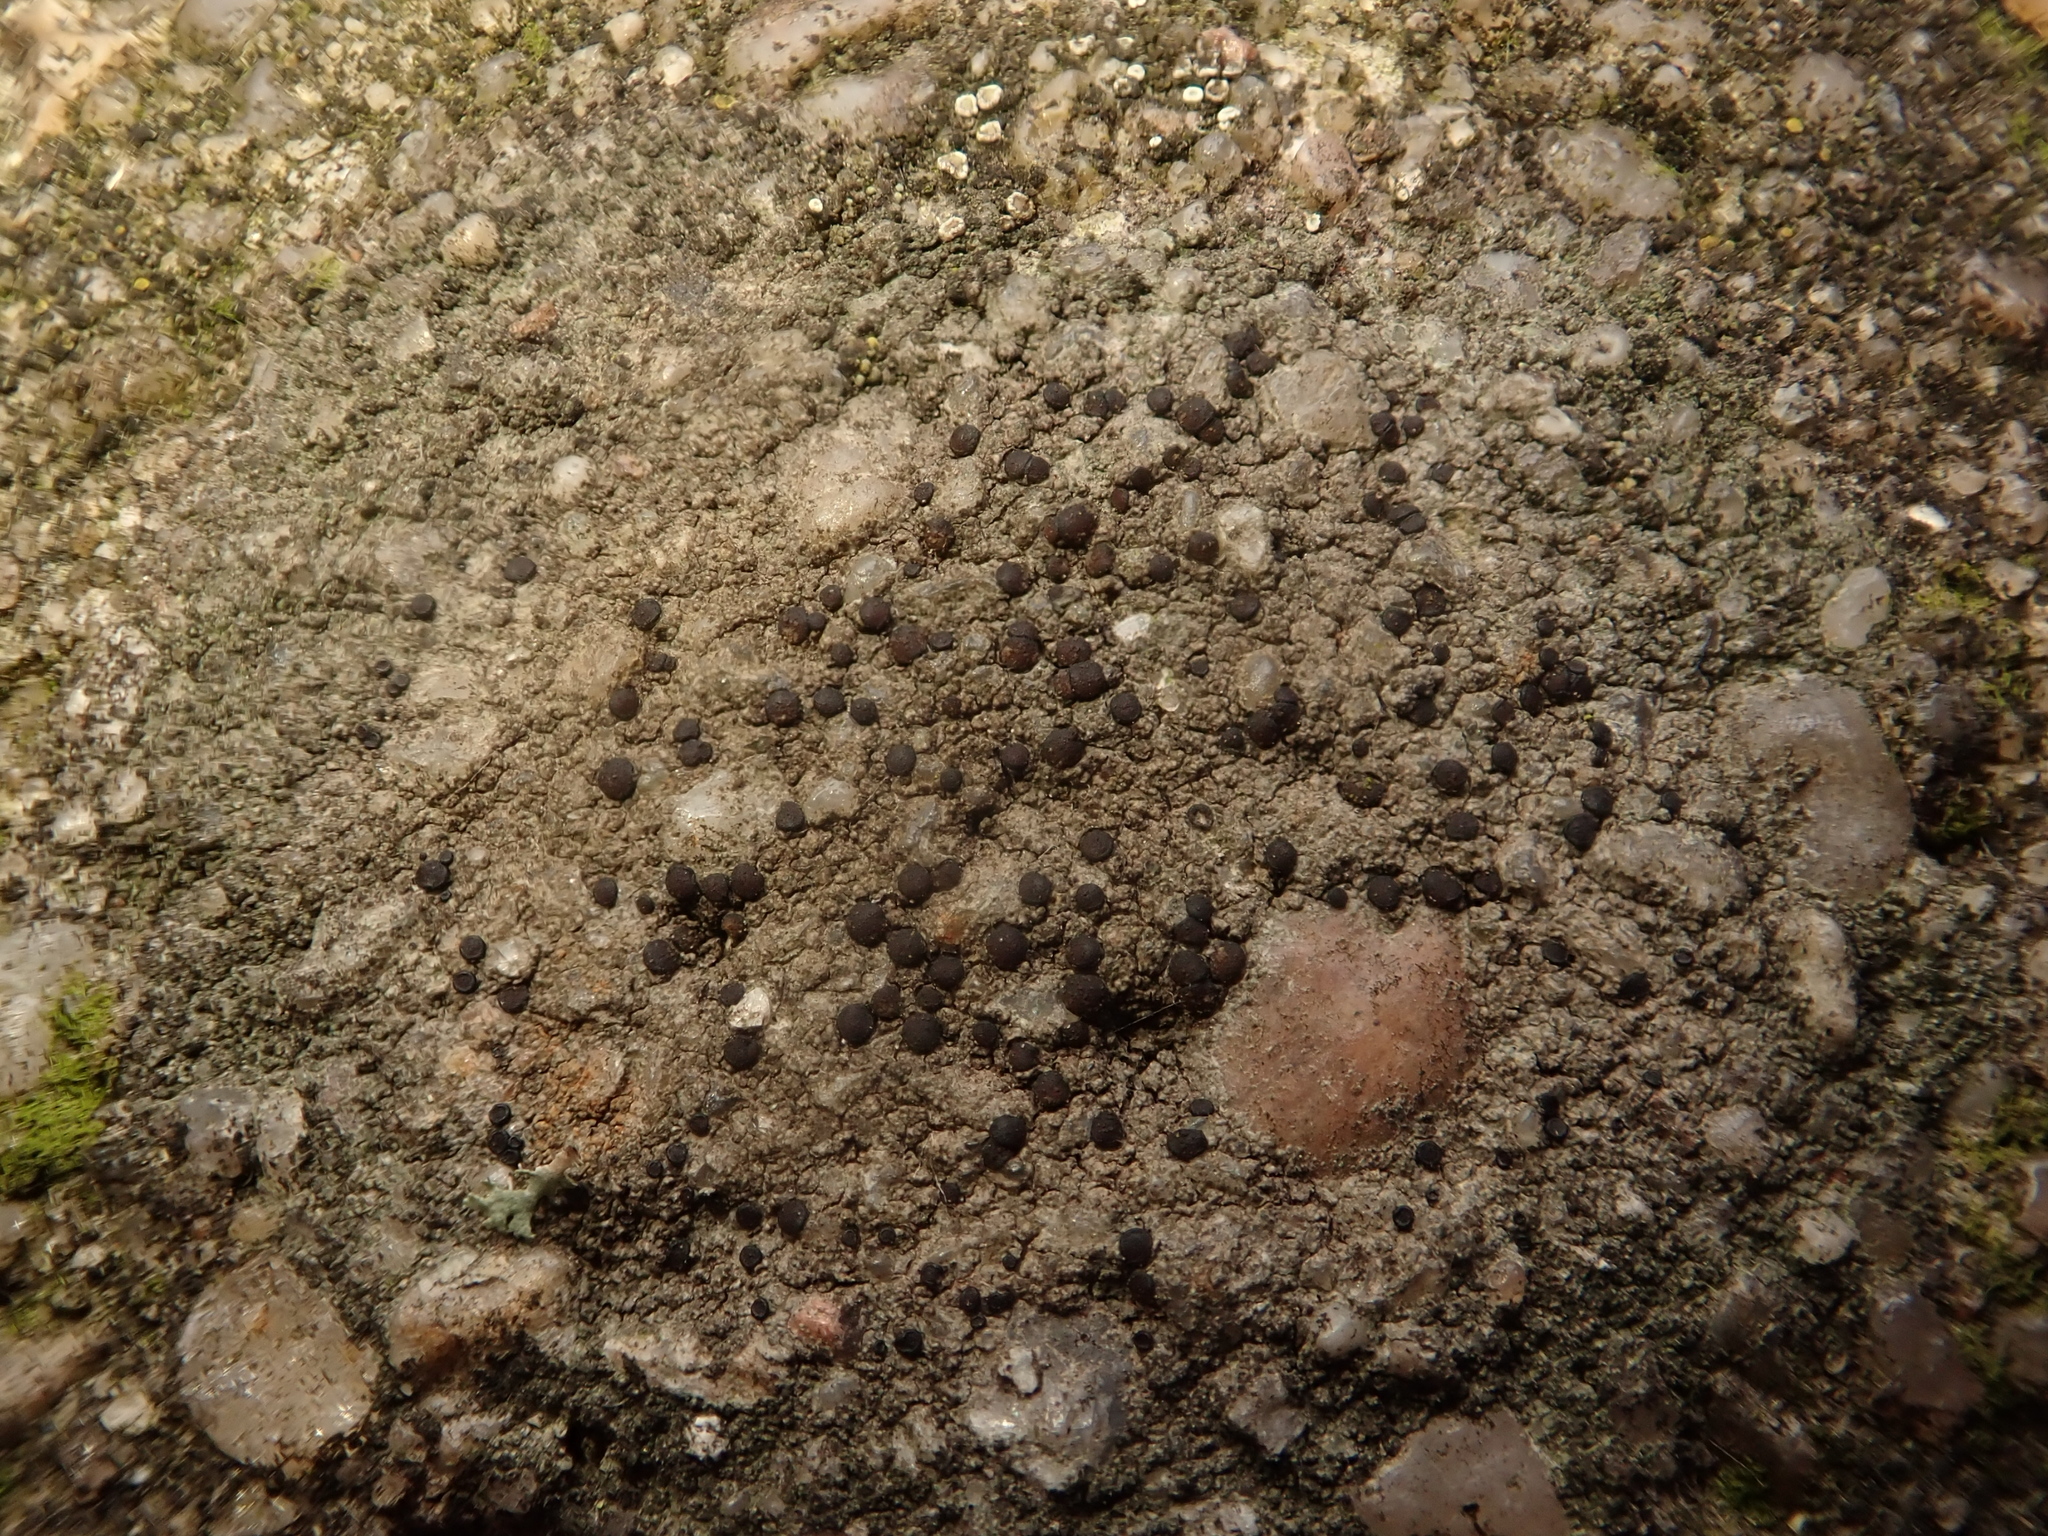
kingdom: Fungi
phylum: Ascomycota
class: Lecanoromycetes
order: Lecanorales
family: Lecanoraceae
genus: Lecidella
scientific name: Lecidella stigmatea
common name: Limestone disc lichen
